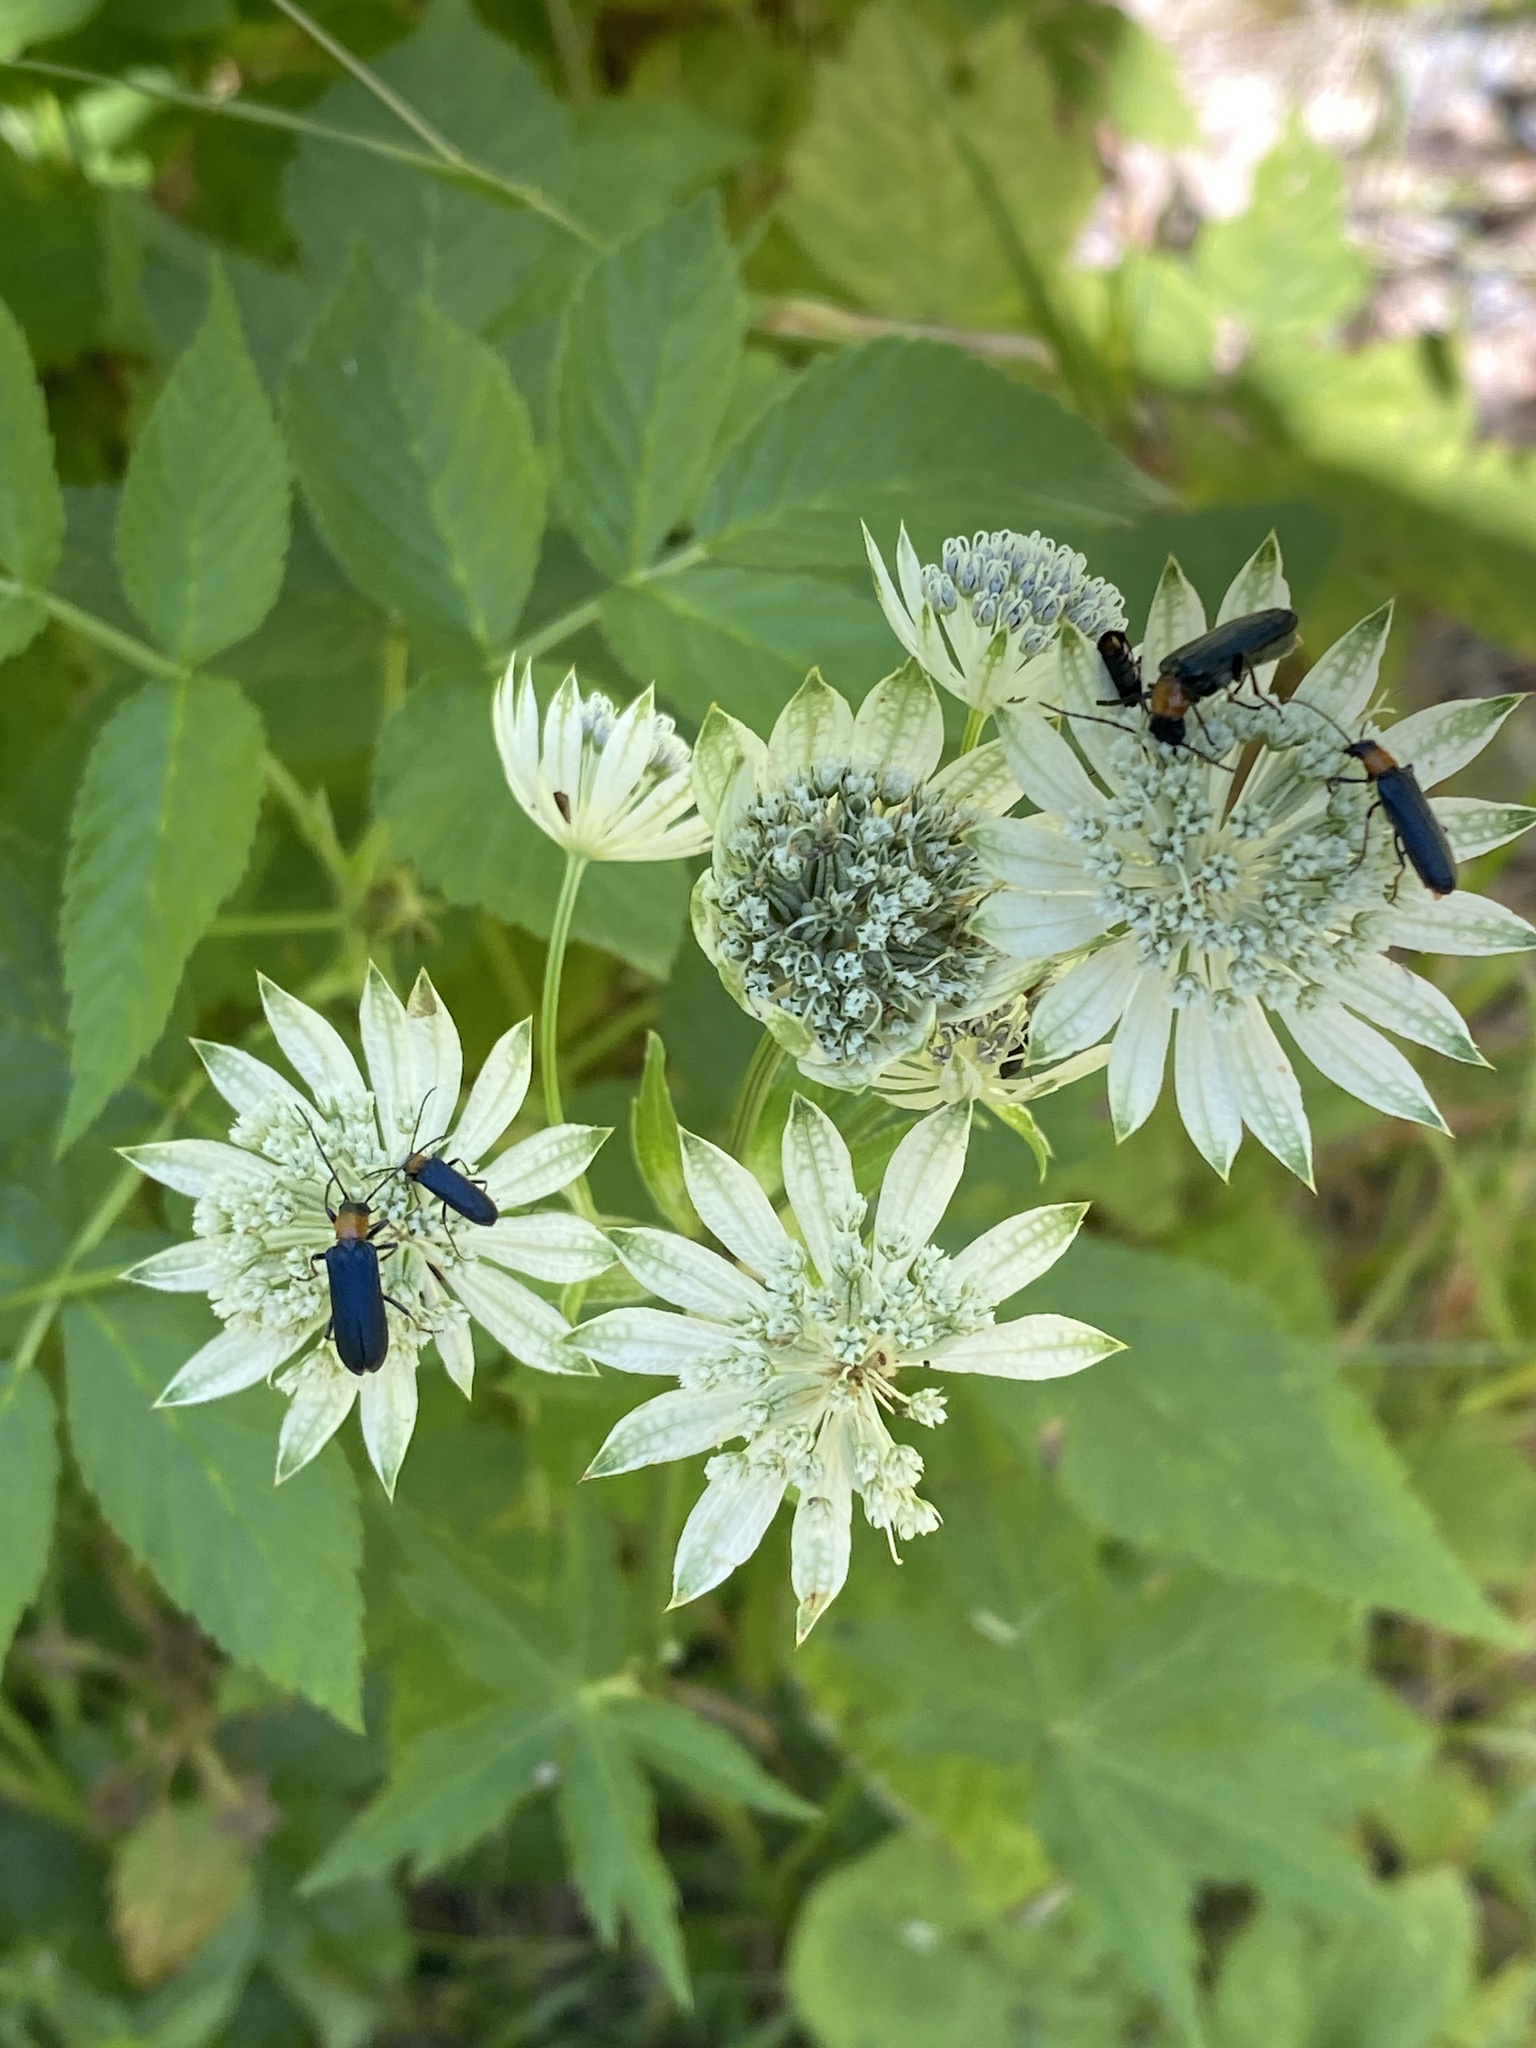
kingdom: Plantae
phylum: Tracheophyta
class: Magnoliopsida
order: Apiales
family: Apiaceae
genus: Astrantia
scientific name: Astrantia major
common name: Greater masterwort
